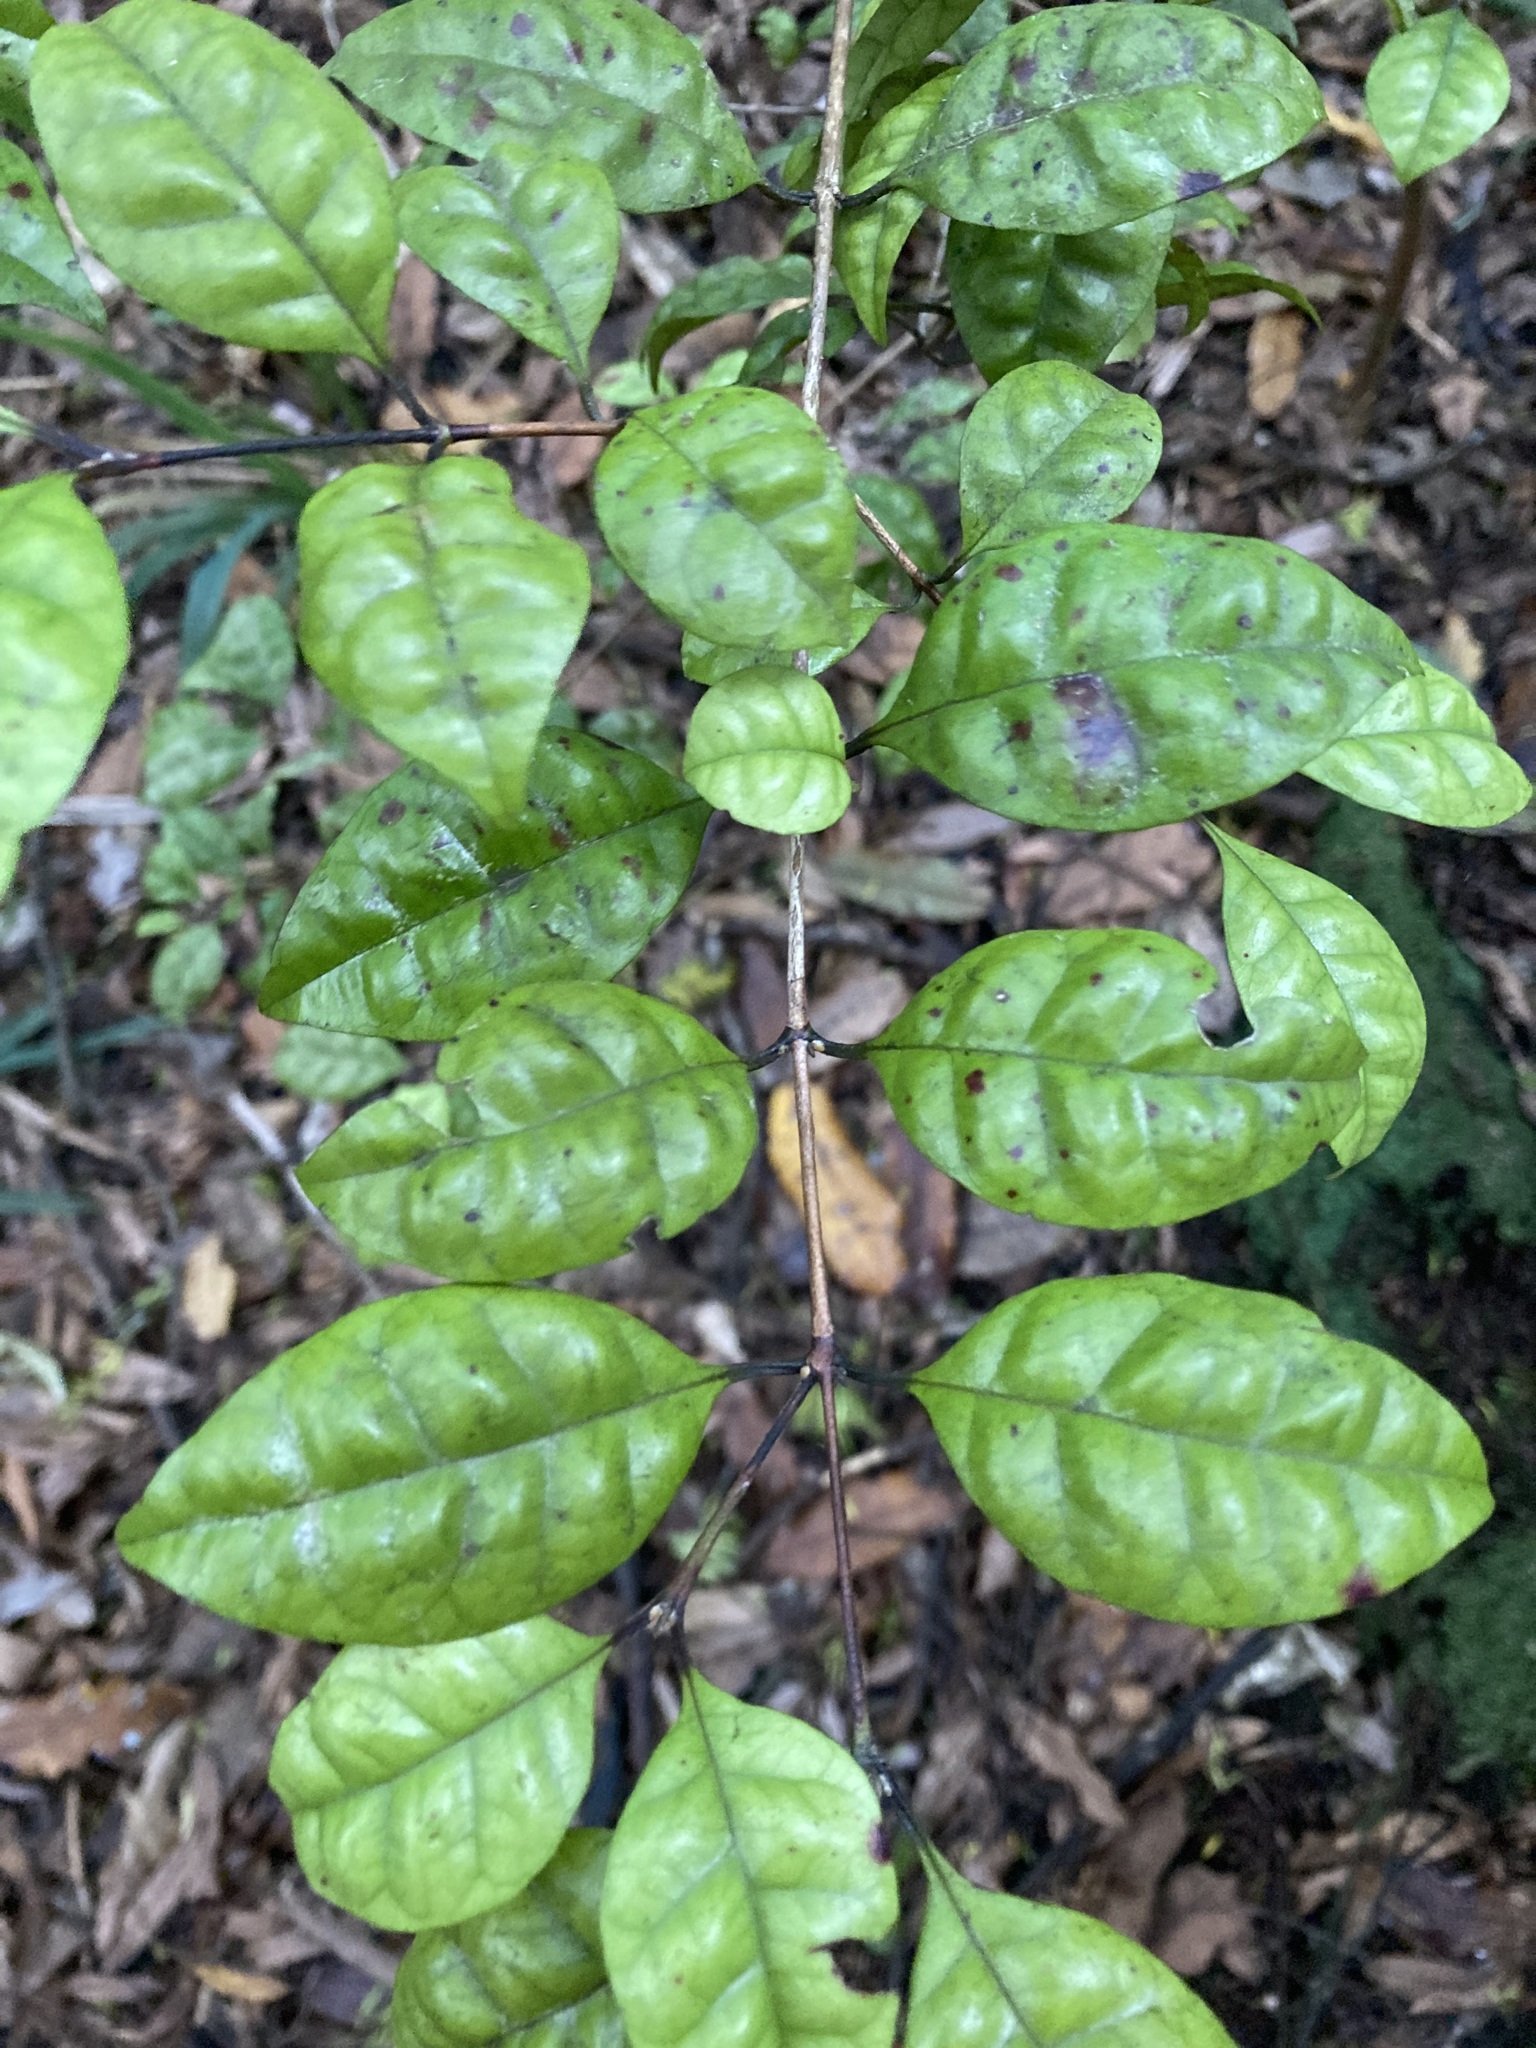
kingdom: Plantae
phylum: Tracheophyta
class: Magnoliopsida
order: Myrtales
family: Myrtaceae
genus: Lophomyrtus
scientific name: Lophomyrtus bullata
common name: Rama rama
